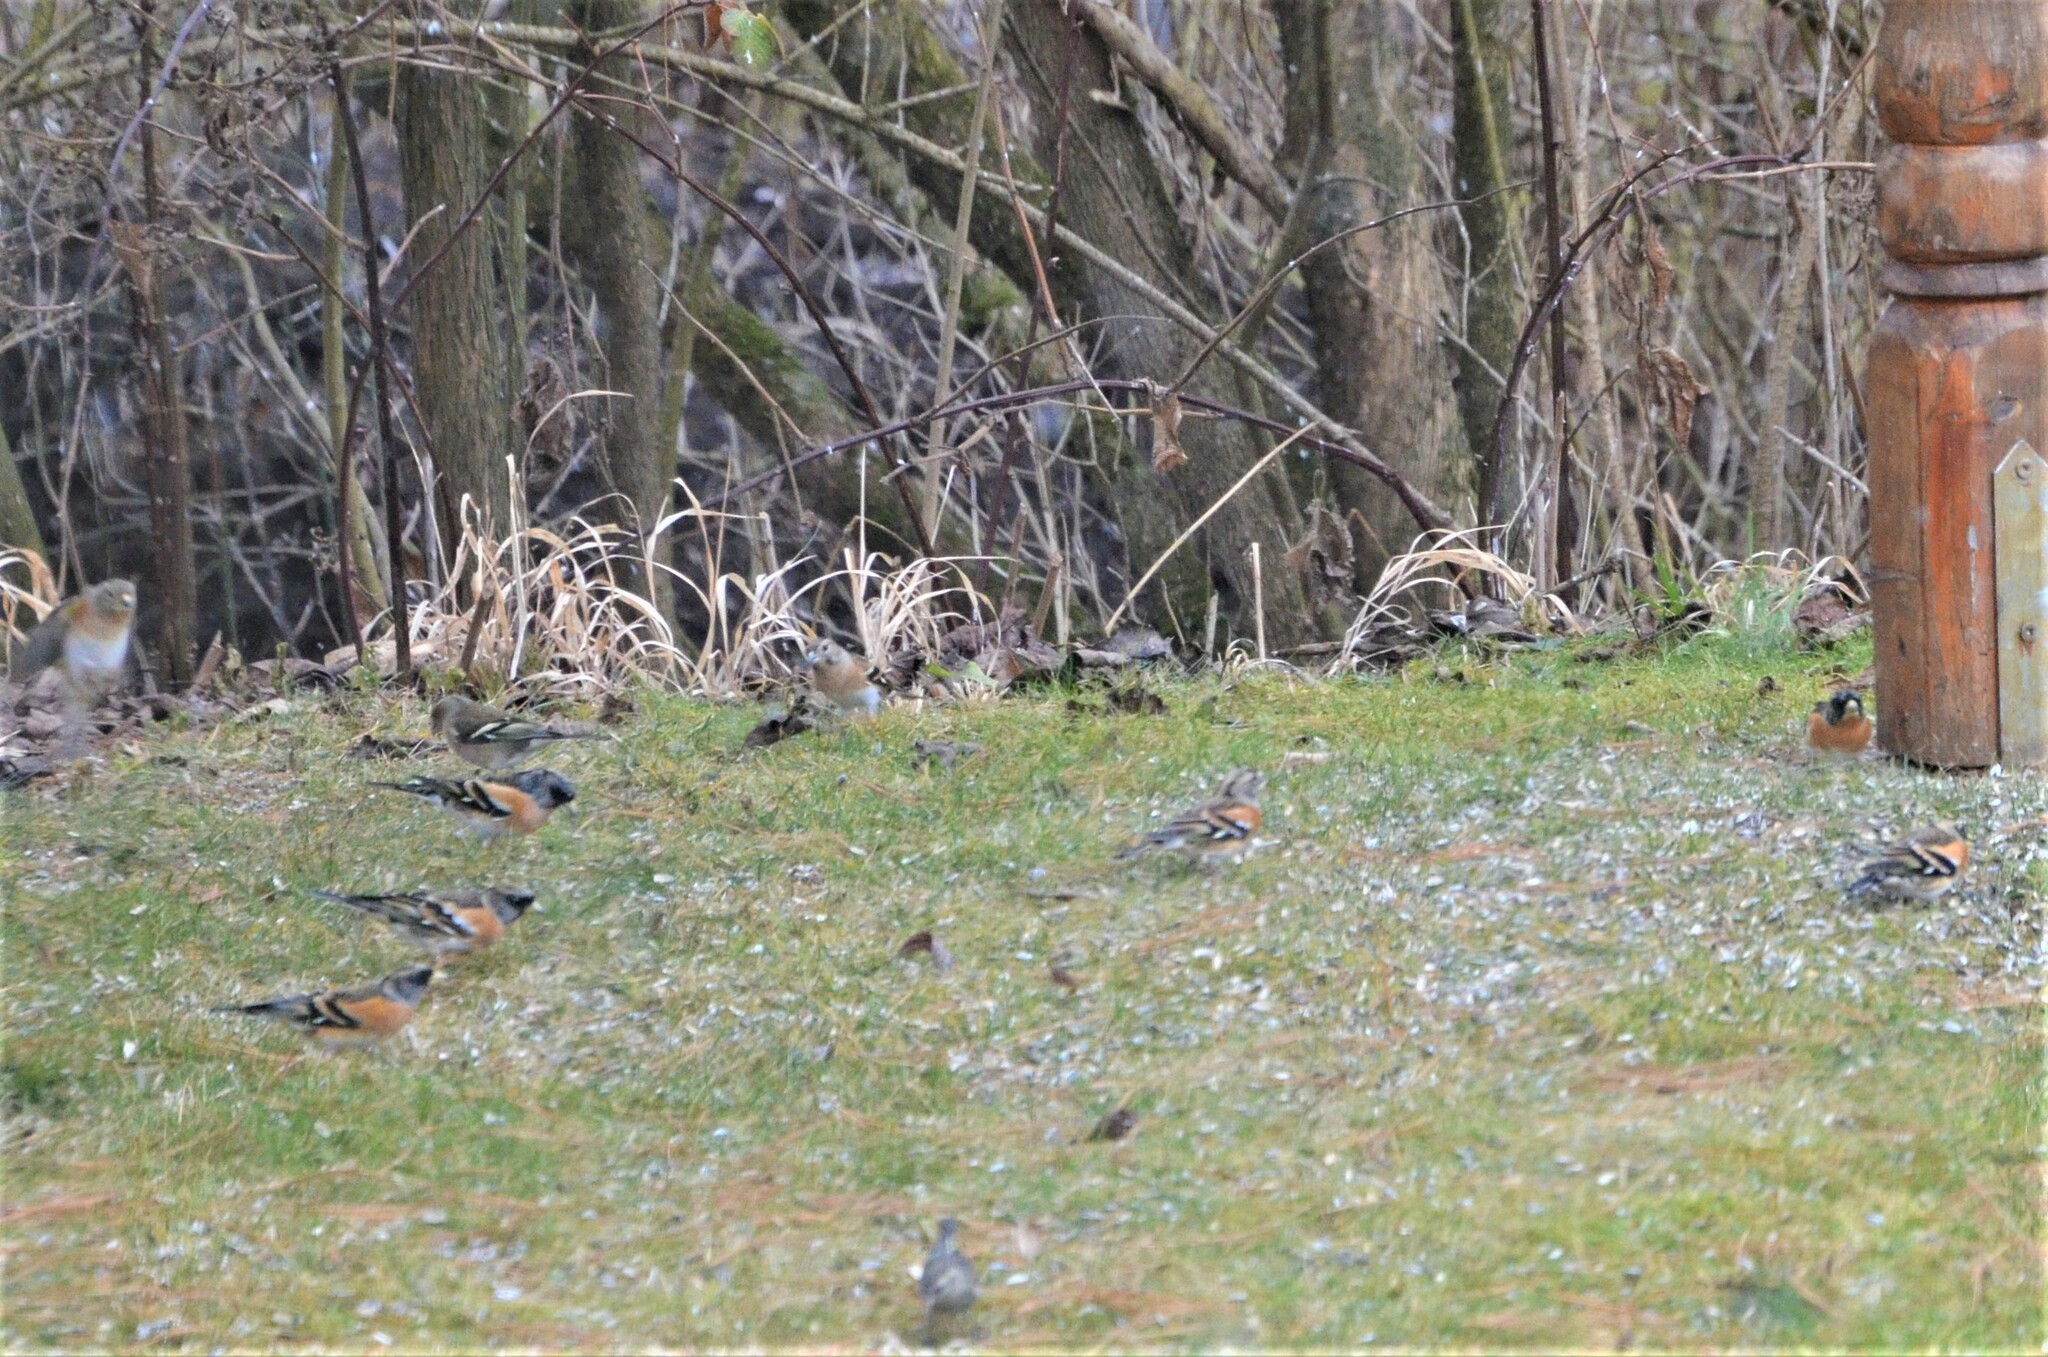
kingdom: Animalia
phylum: Chordata
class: Aves
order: Passeriformes
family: Fringillidae
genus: Fringilla
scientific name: Fringilla montifringilla
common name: Brambling
